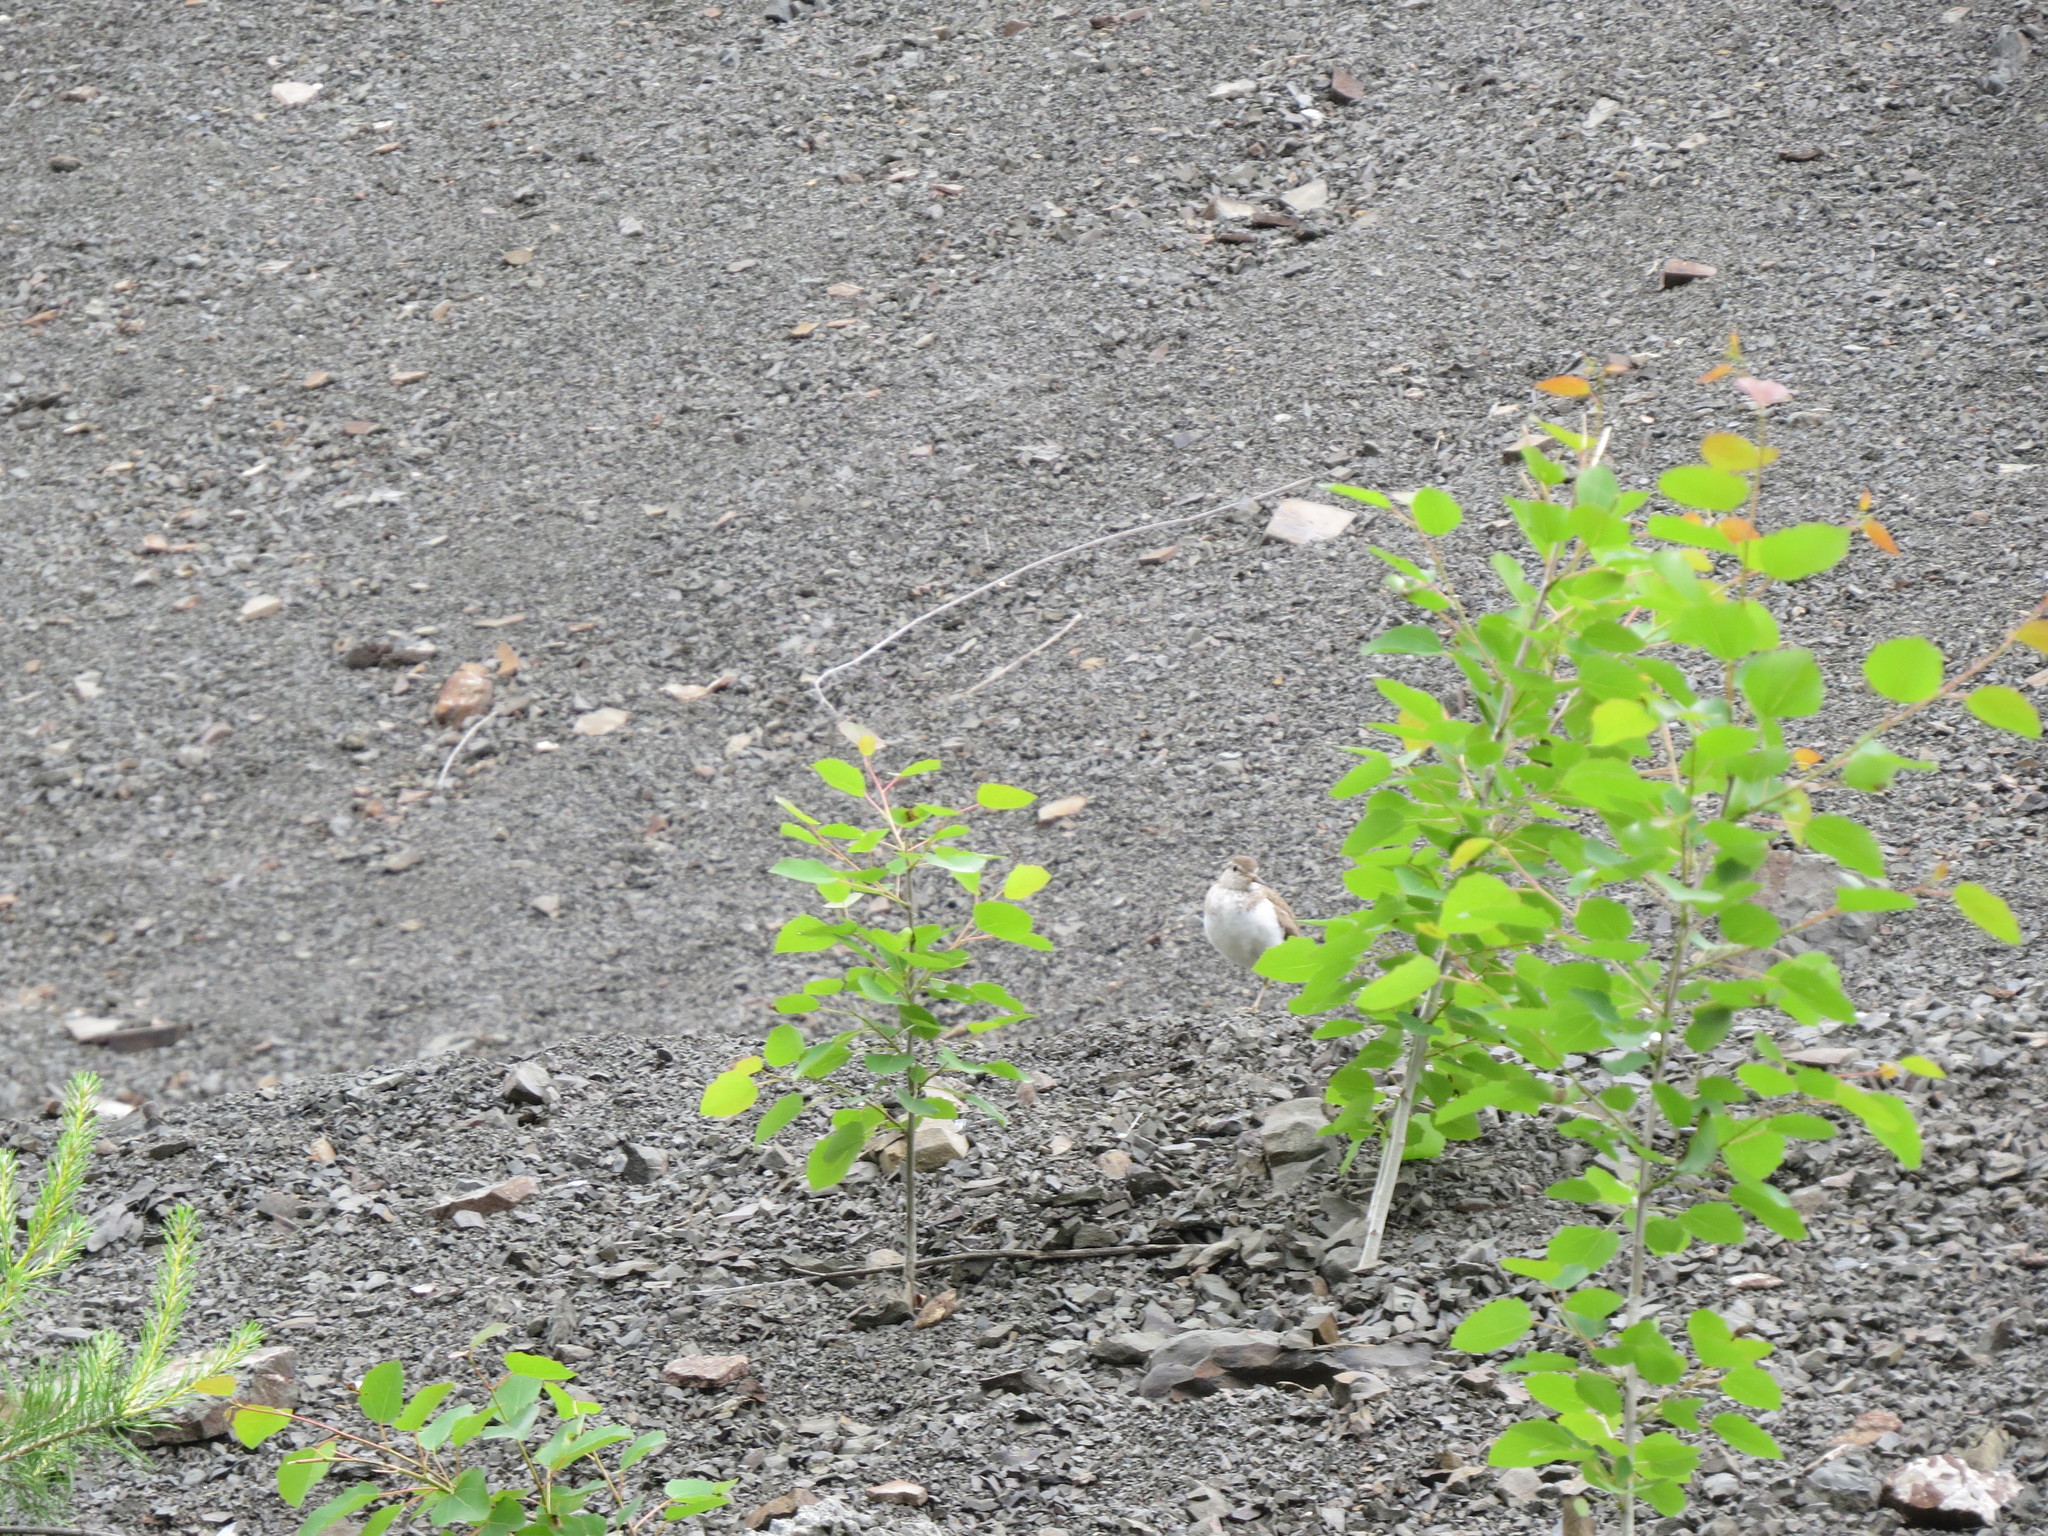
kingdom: Animalia
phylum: Chordata
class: Aves
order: Charadriiformes
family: Scolopacidae
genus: Actitis
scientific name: Actitis hypoleucos
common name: Common sandpiper
